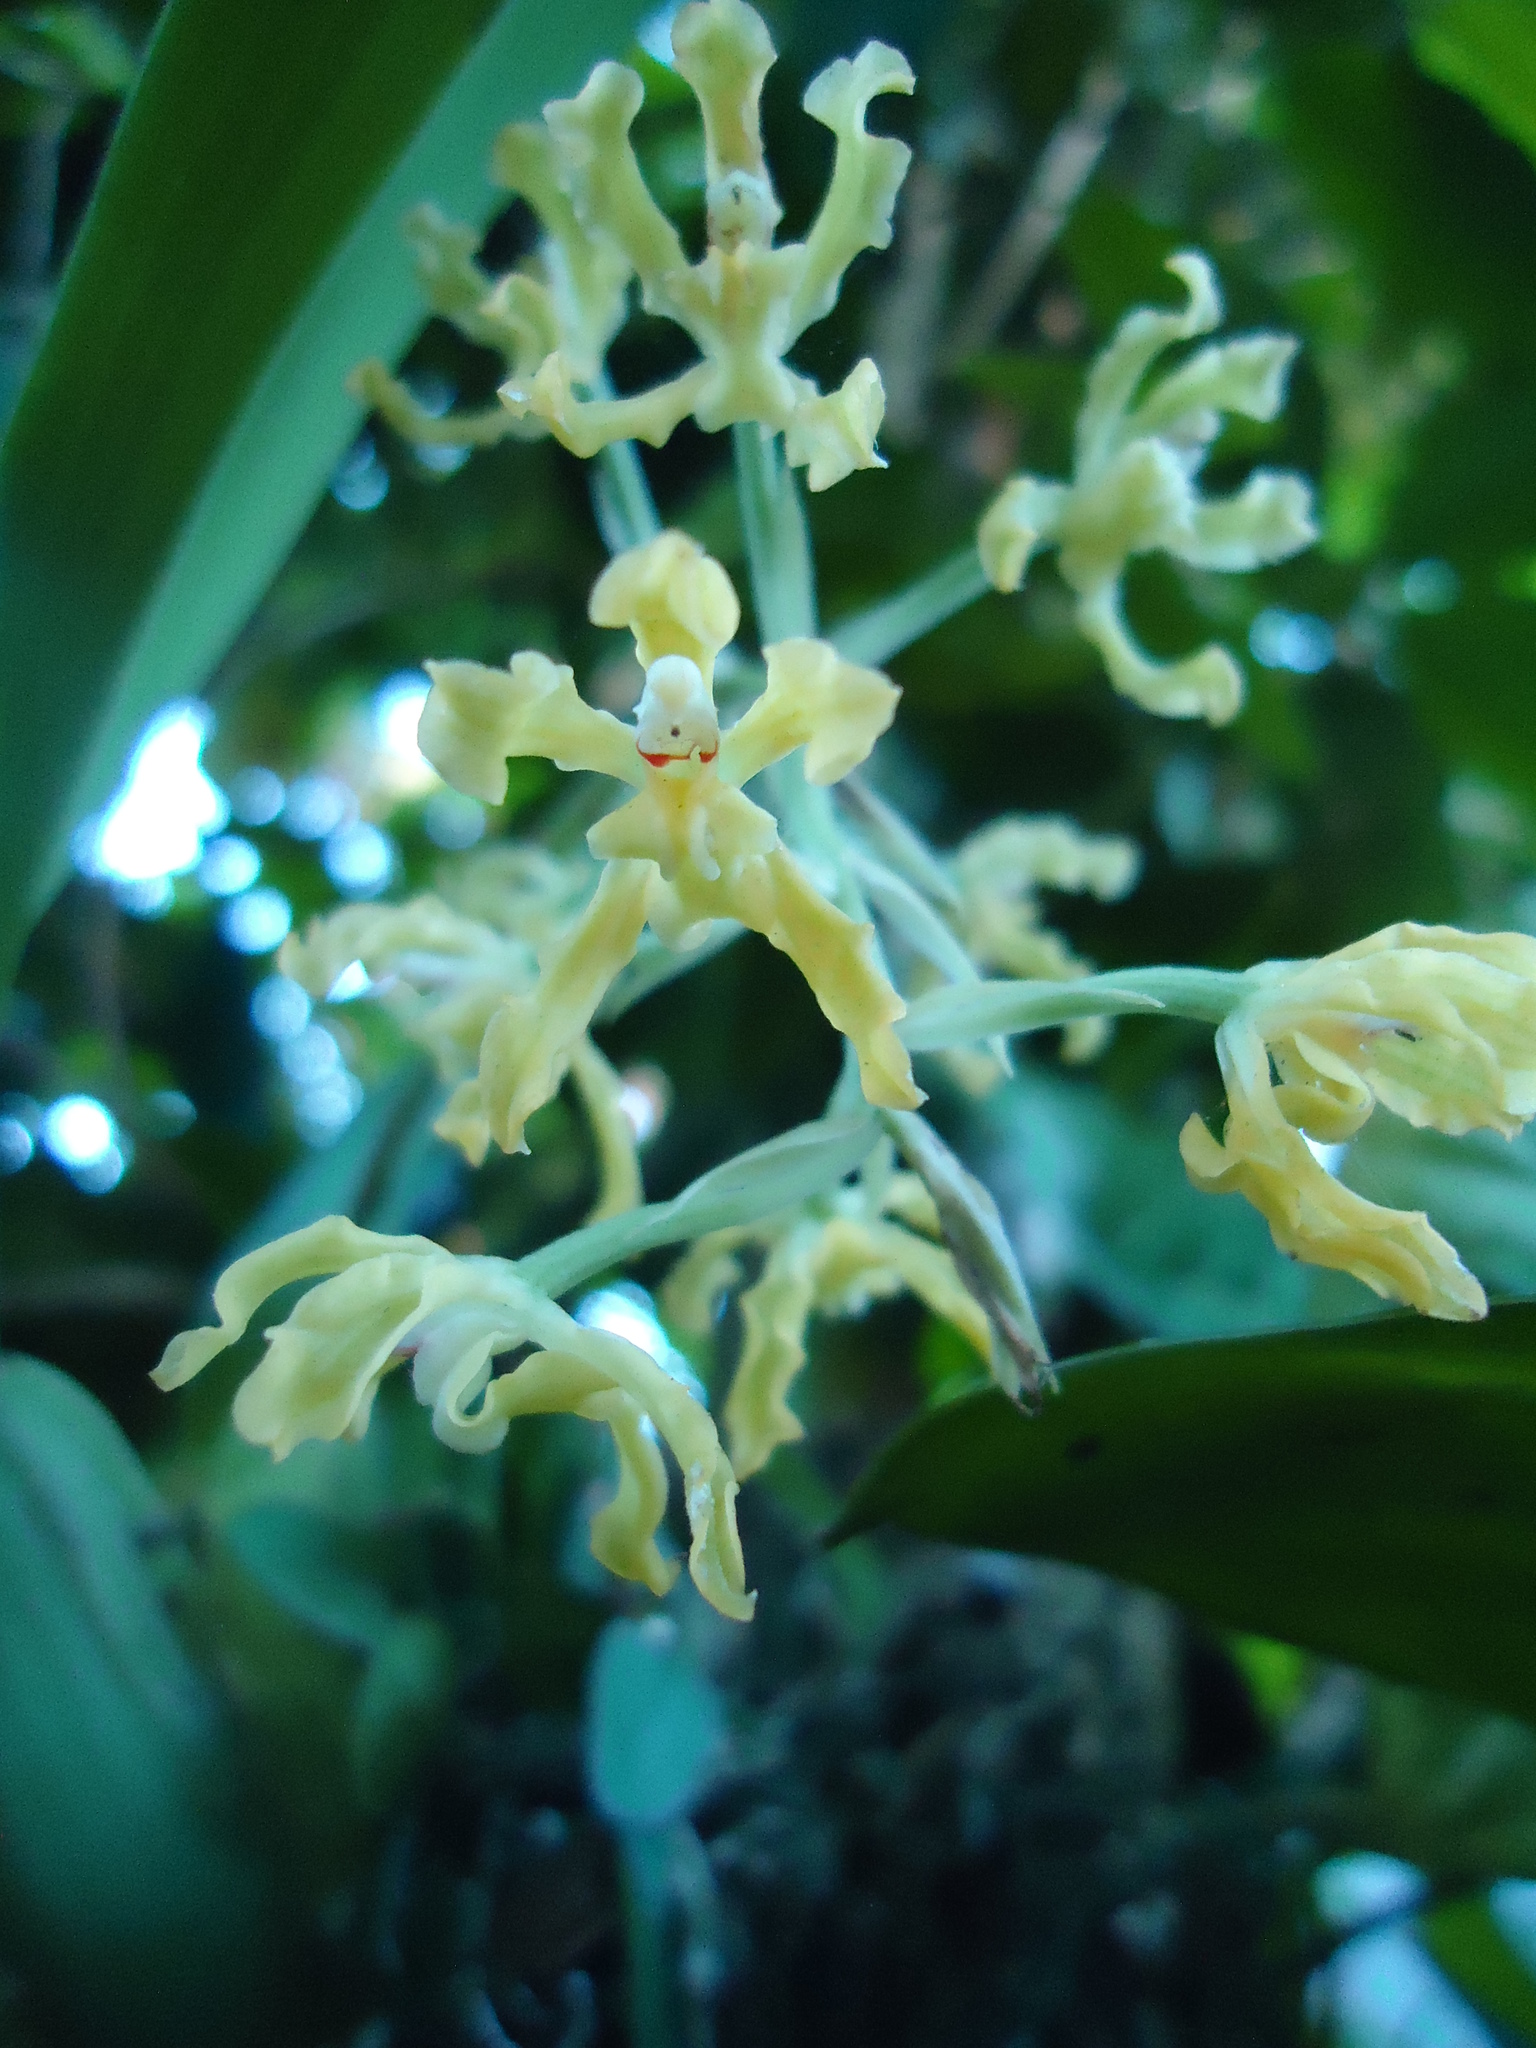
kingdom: Plantae
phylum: Tracheophyta
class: Liliopsida
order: Asparagales
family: Orchidaceae
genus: Gomesa
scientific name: Gomesa crispa
